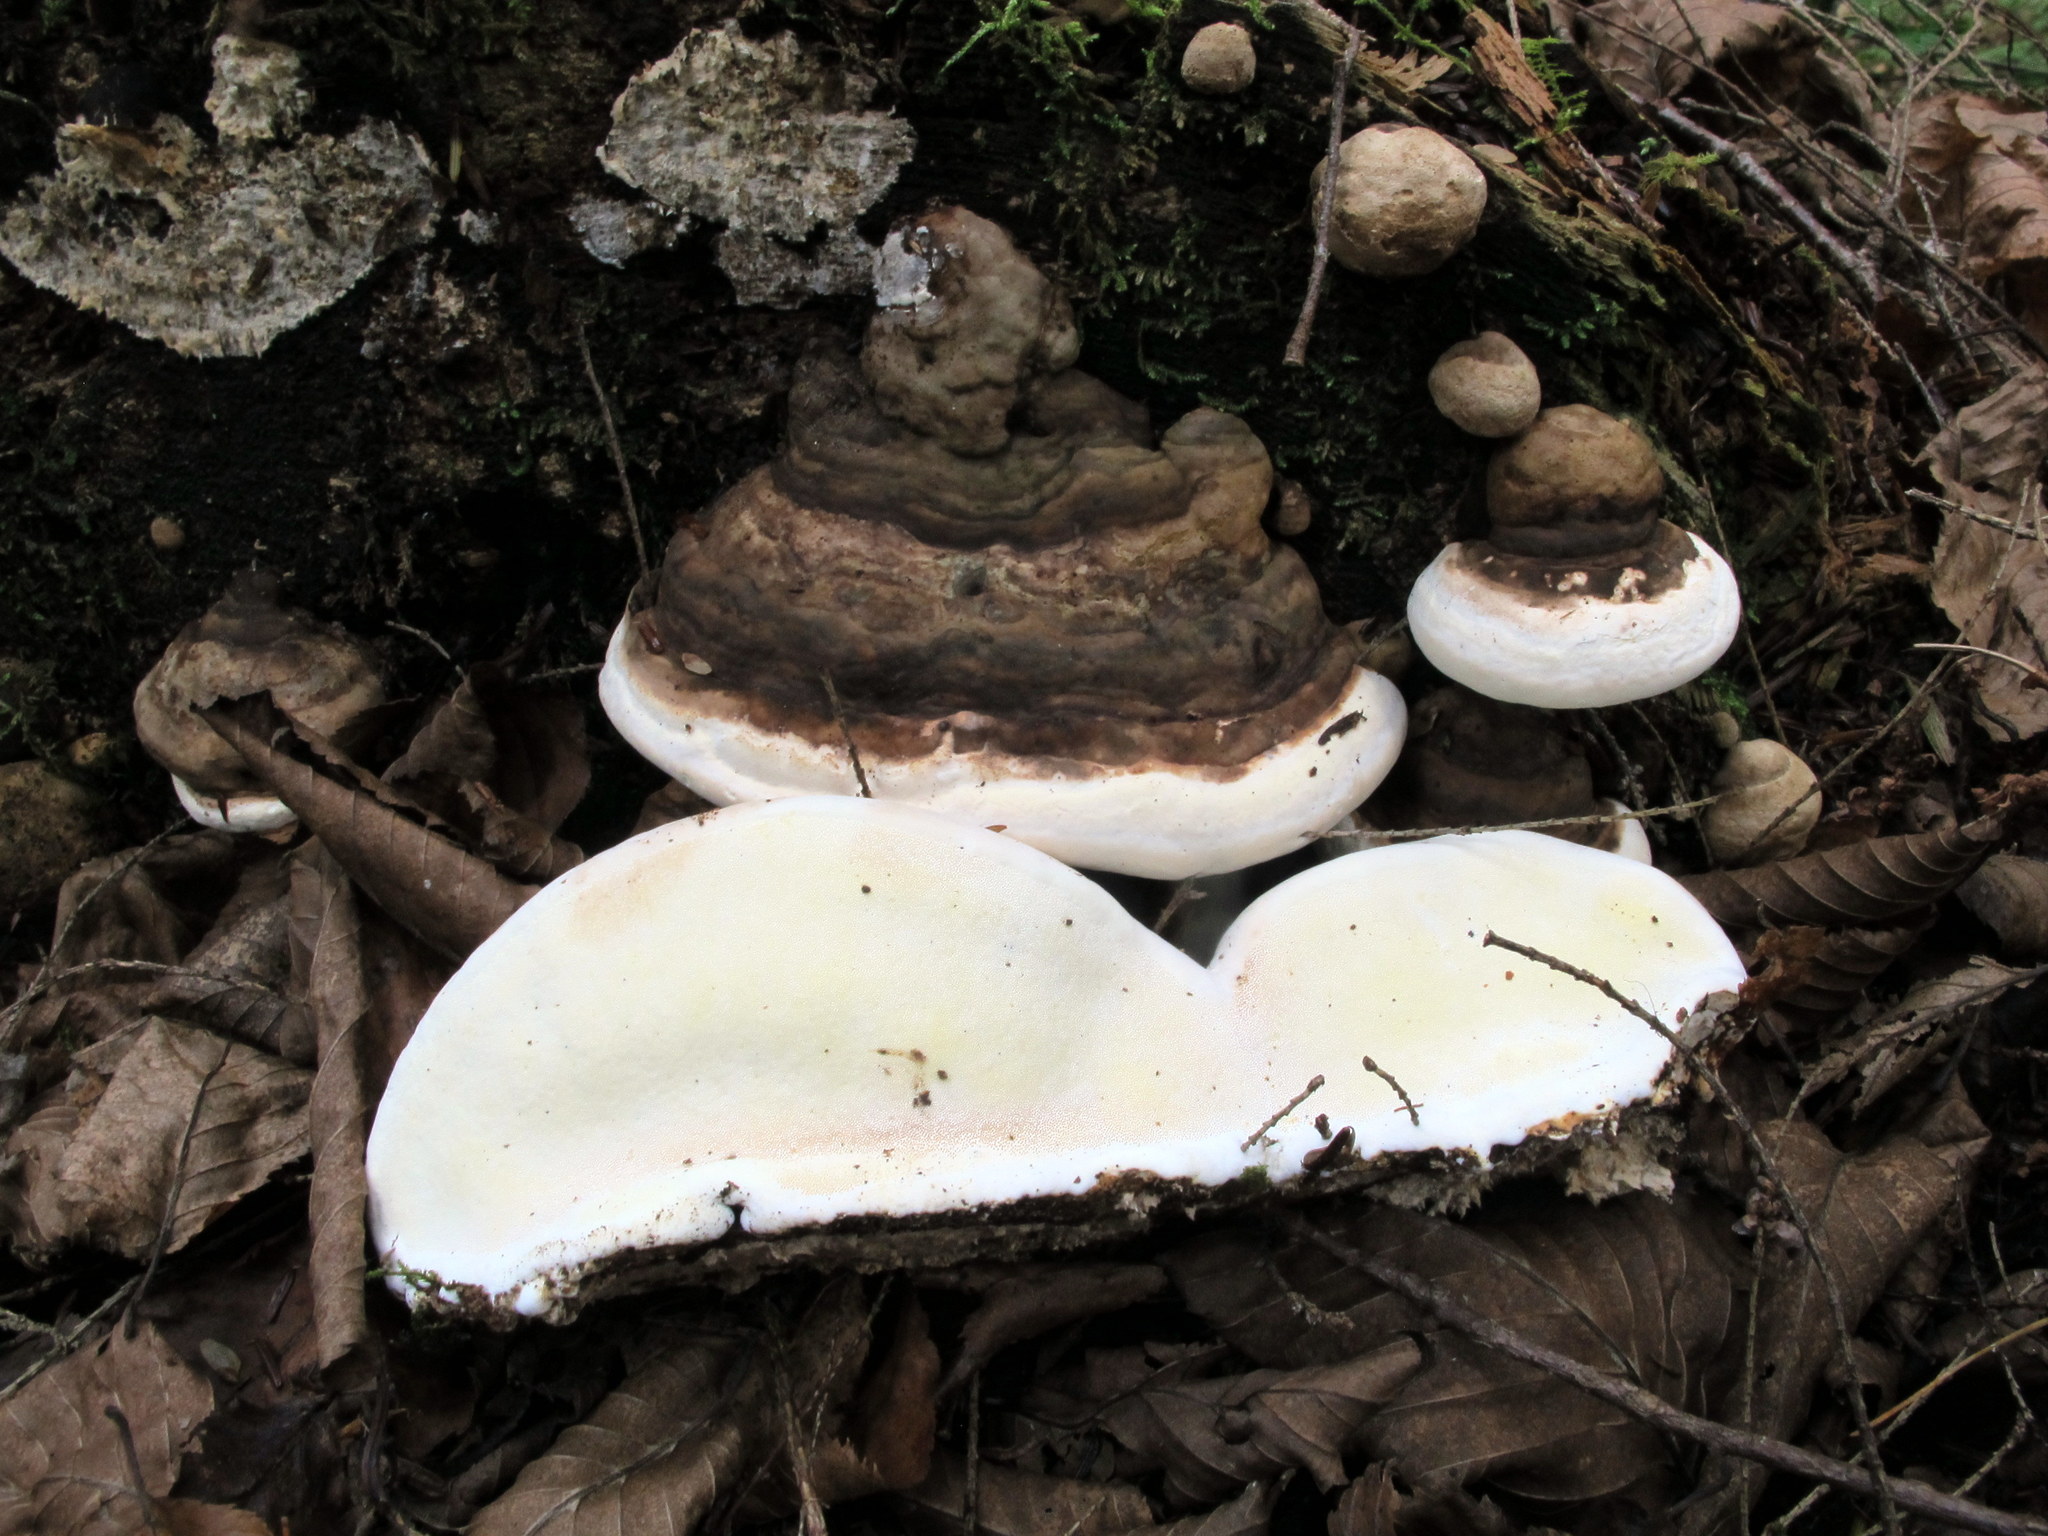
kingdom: Fungi
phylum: Basidiomycota
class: Agaricomycetes
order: Polyporales
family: Fomitopsidaceae
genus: Fomitopsis
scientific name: Fomitopsis ochracea
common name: American brown fomitopsis
